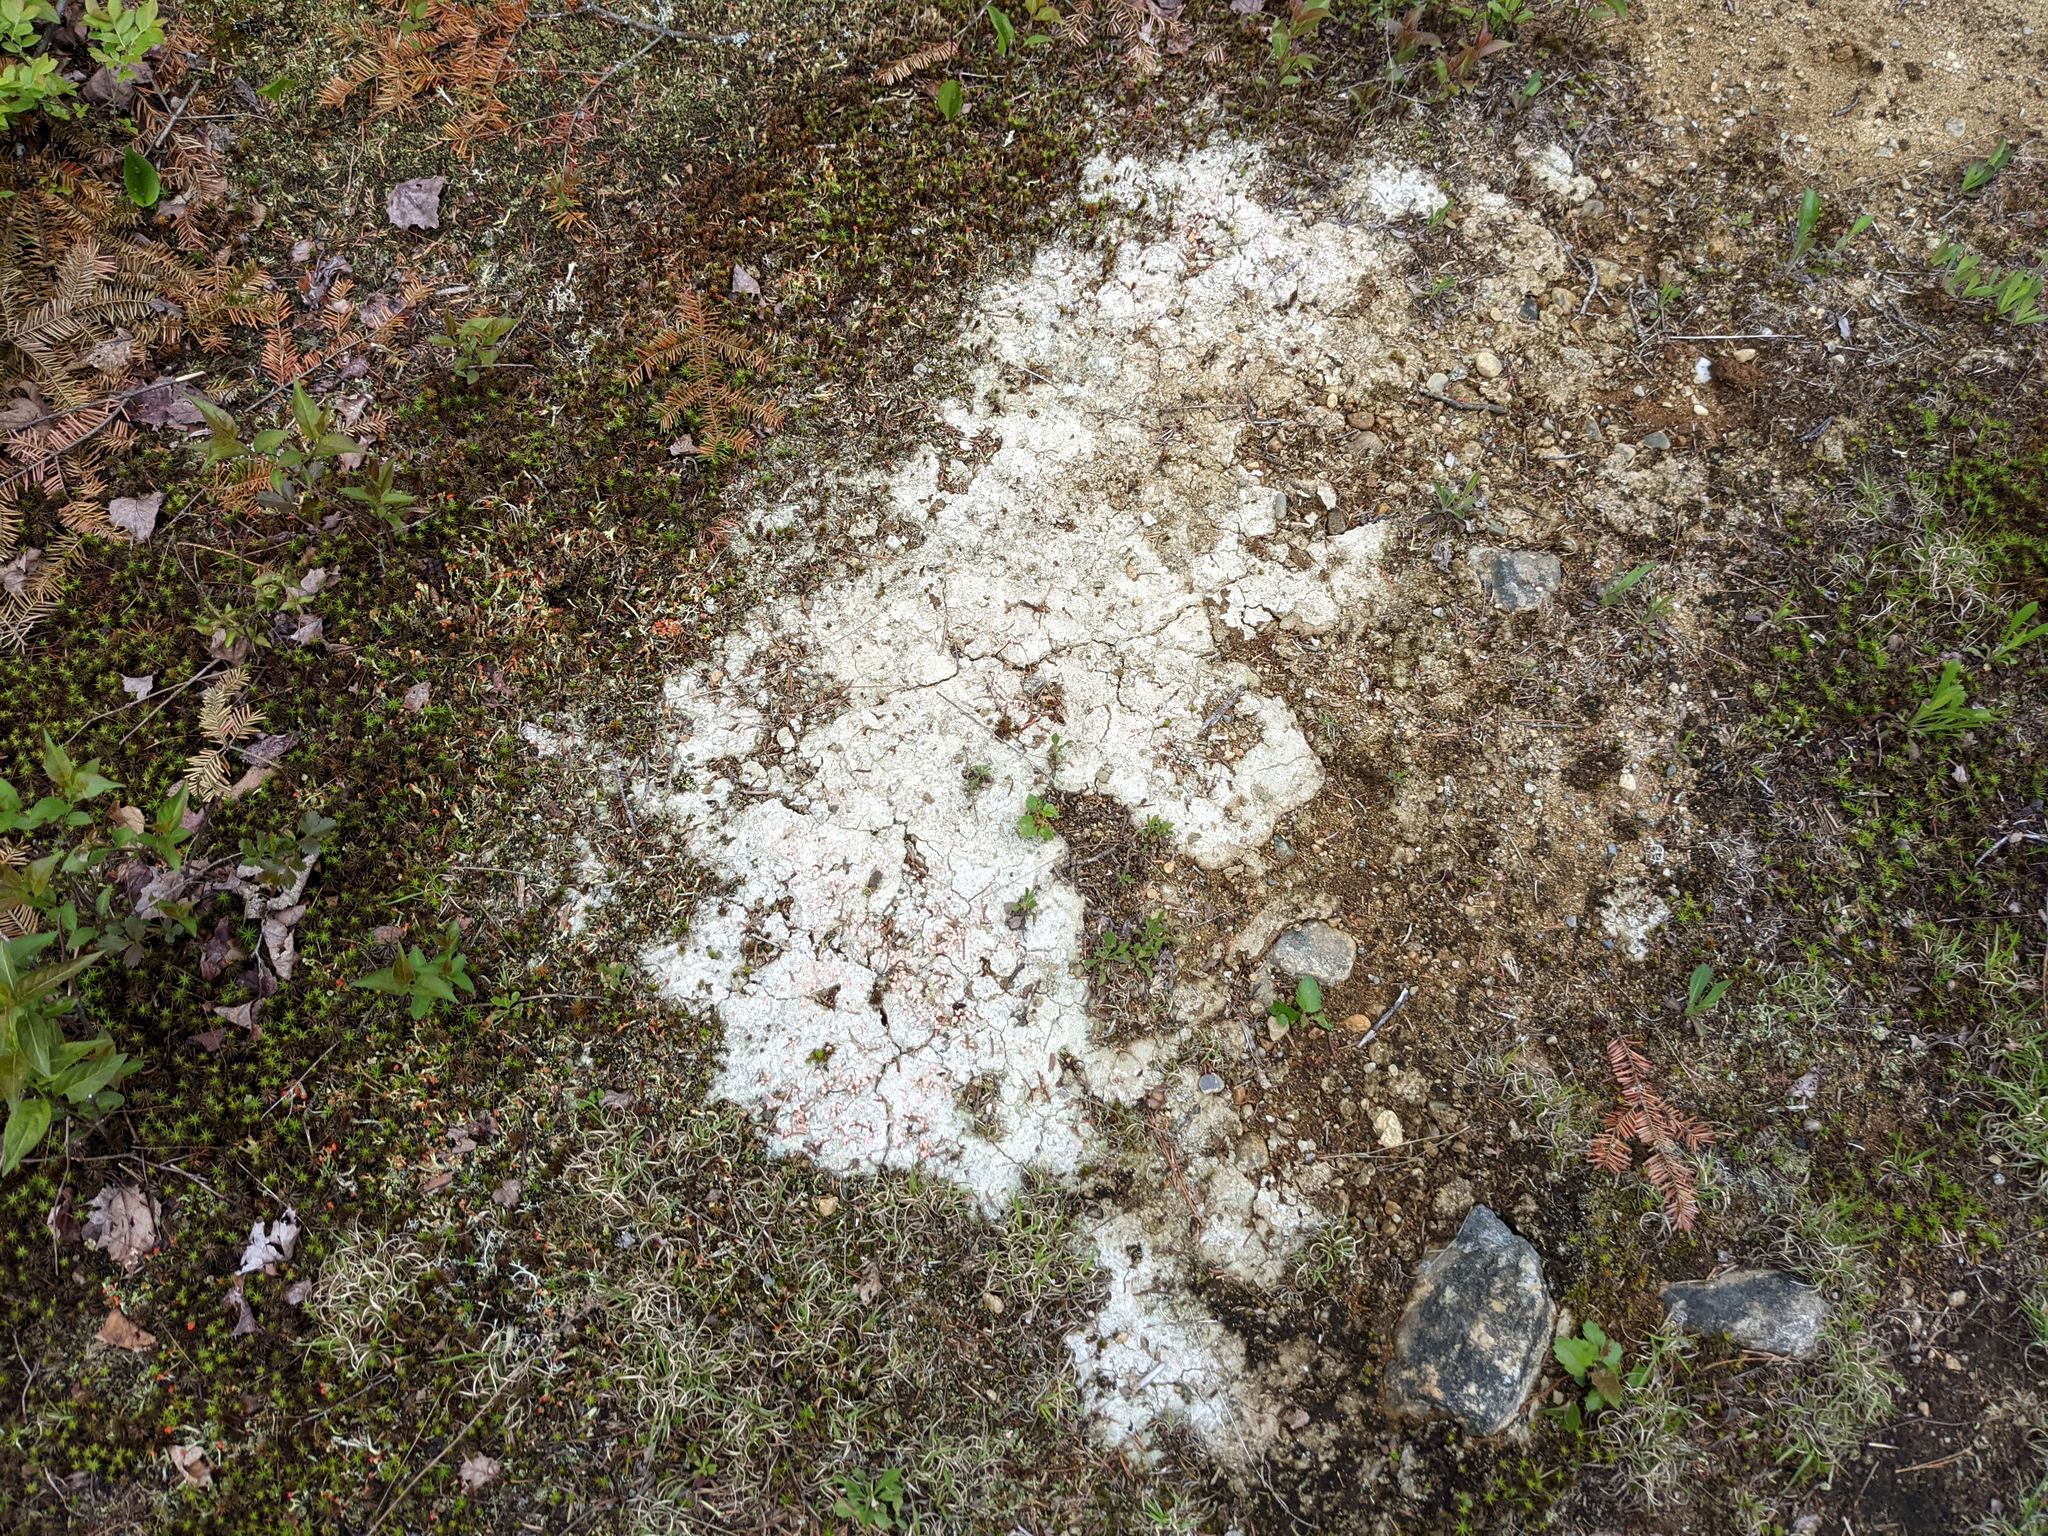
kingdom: Fungi
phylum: Ascomycota
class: Lecanoromycetes
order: Pertusariales
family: Icmadophilaceae
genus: Dibaeis
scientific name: Dibaeis baeomyces
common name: Pink earth lichen
